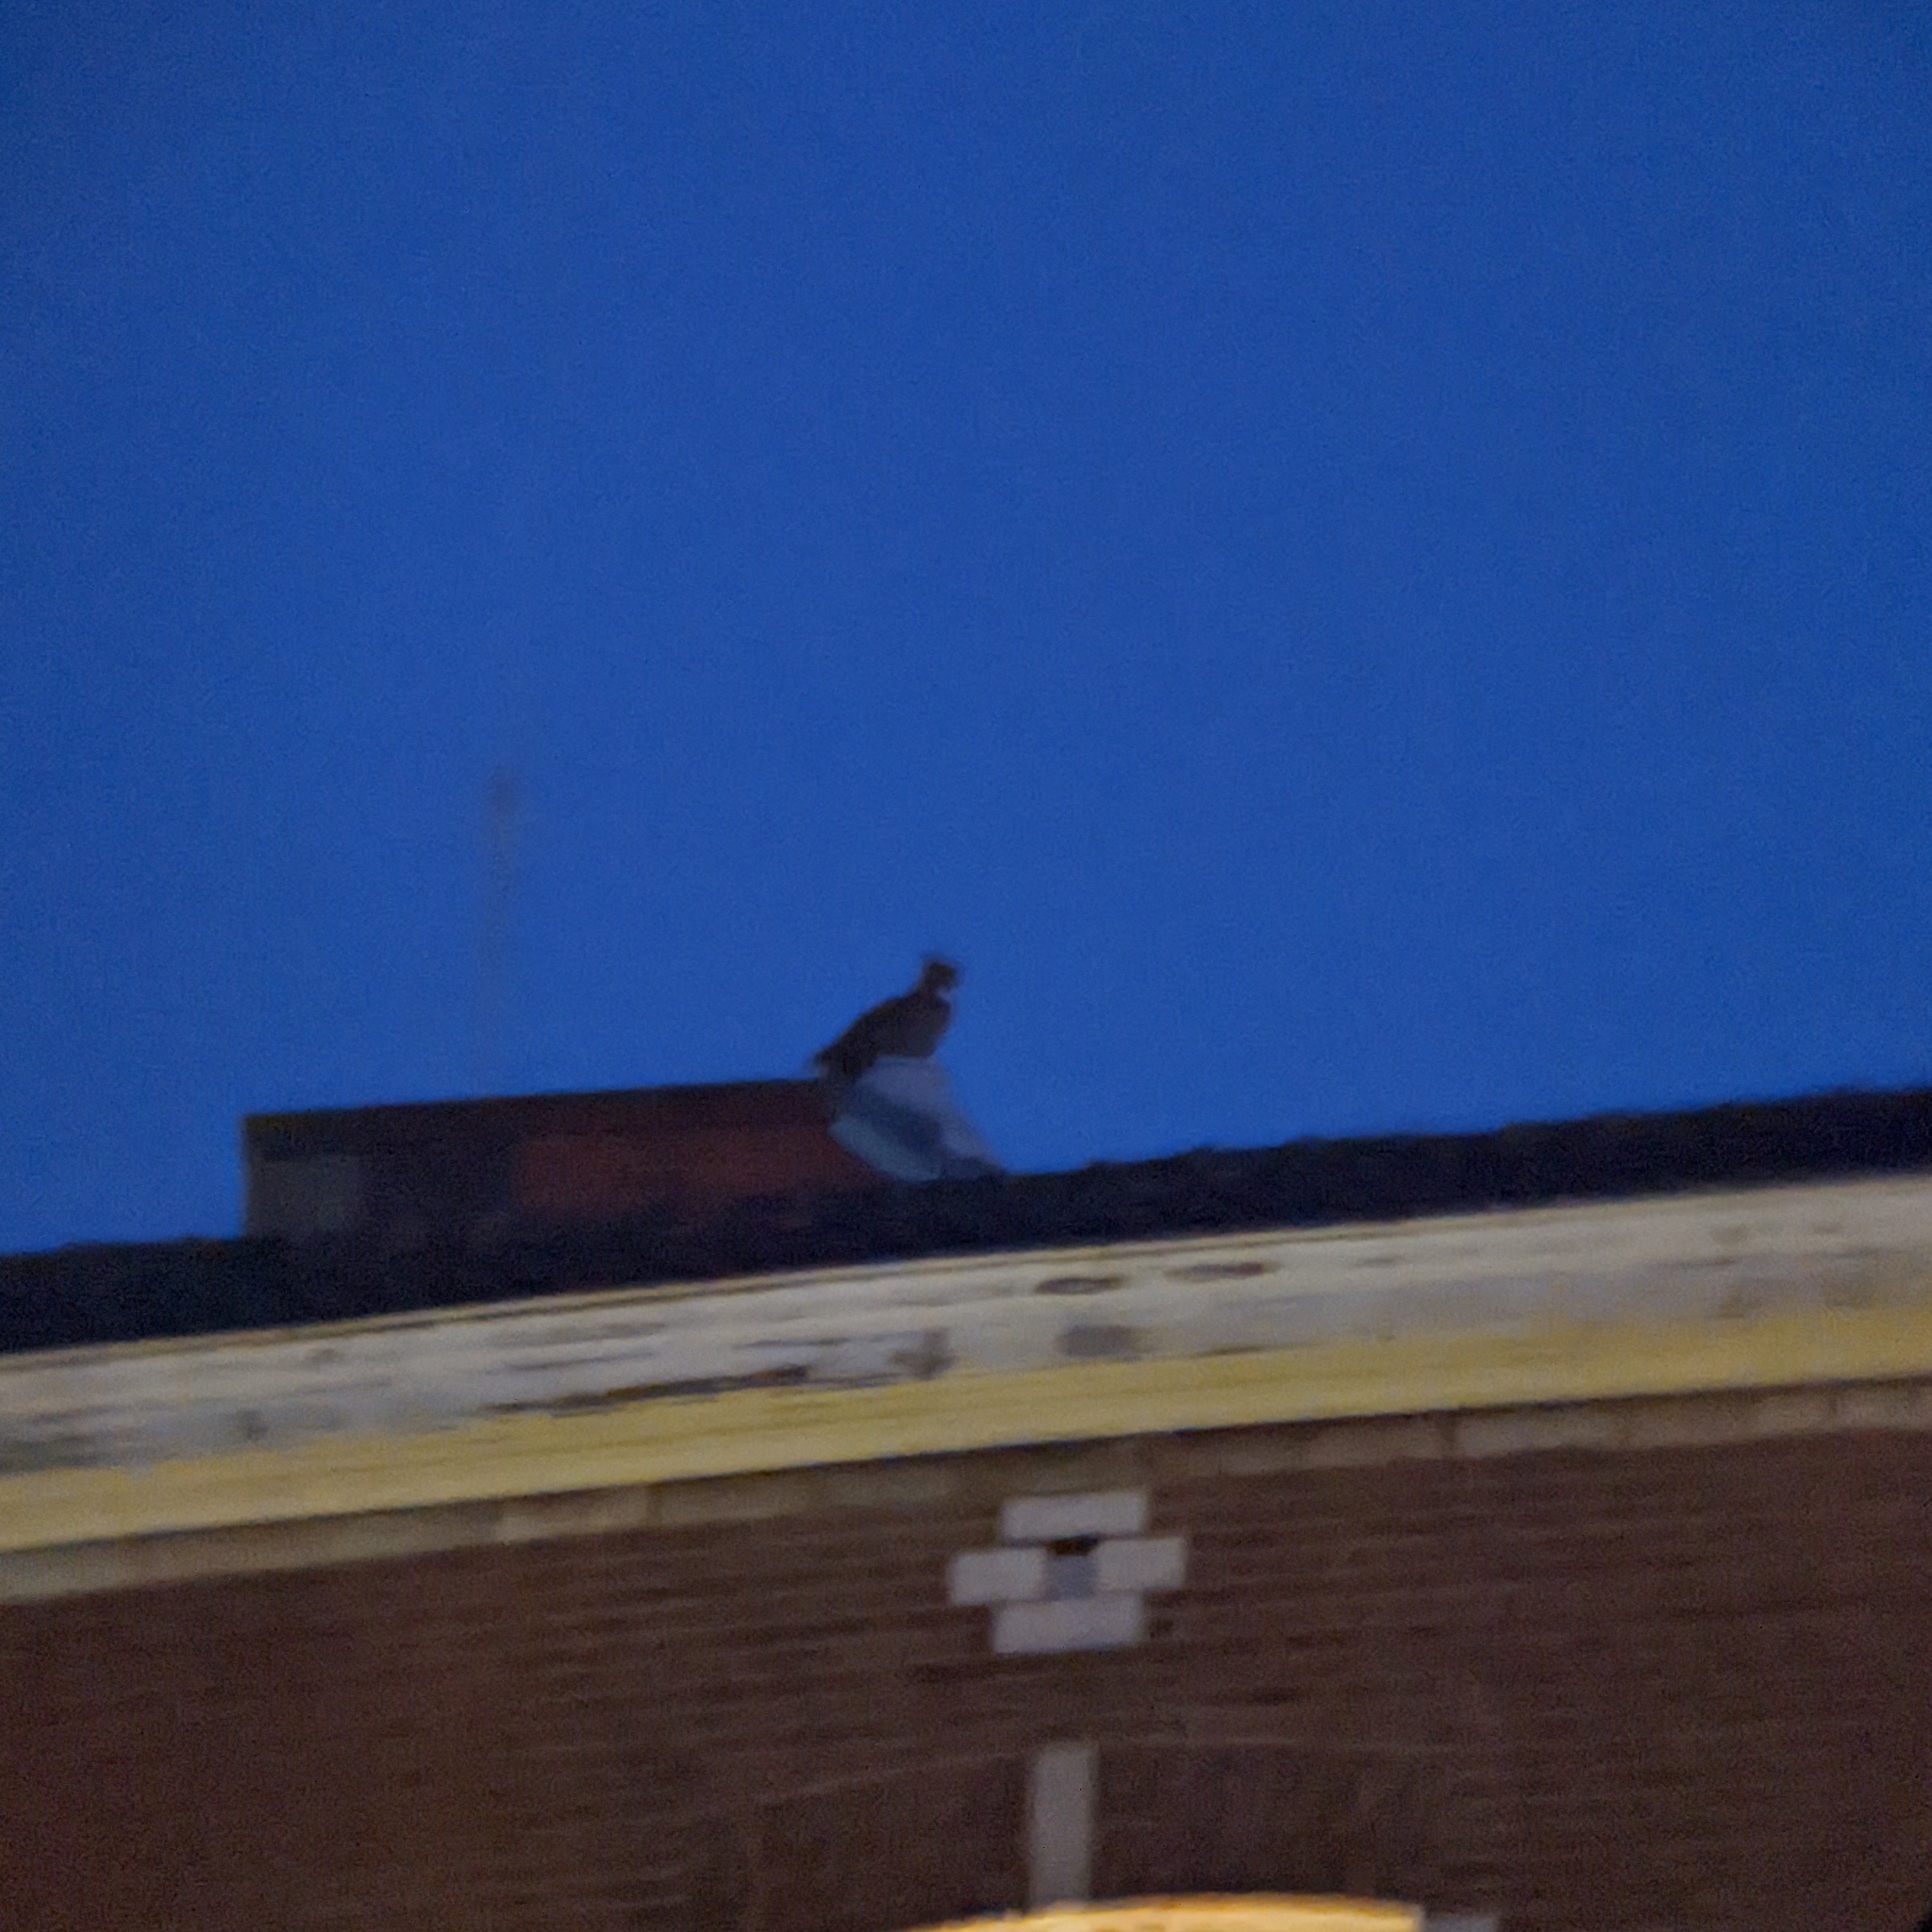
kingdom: Animalia
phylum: Chordata
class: Aves
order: Strigiformes
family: Strigidae
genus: Bubo
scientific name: Bubo bubo
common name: Eurasian eagle-owl
